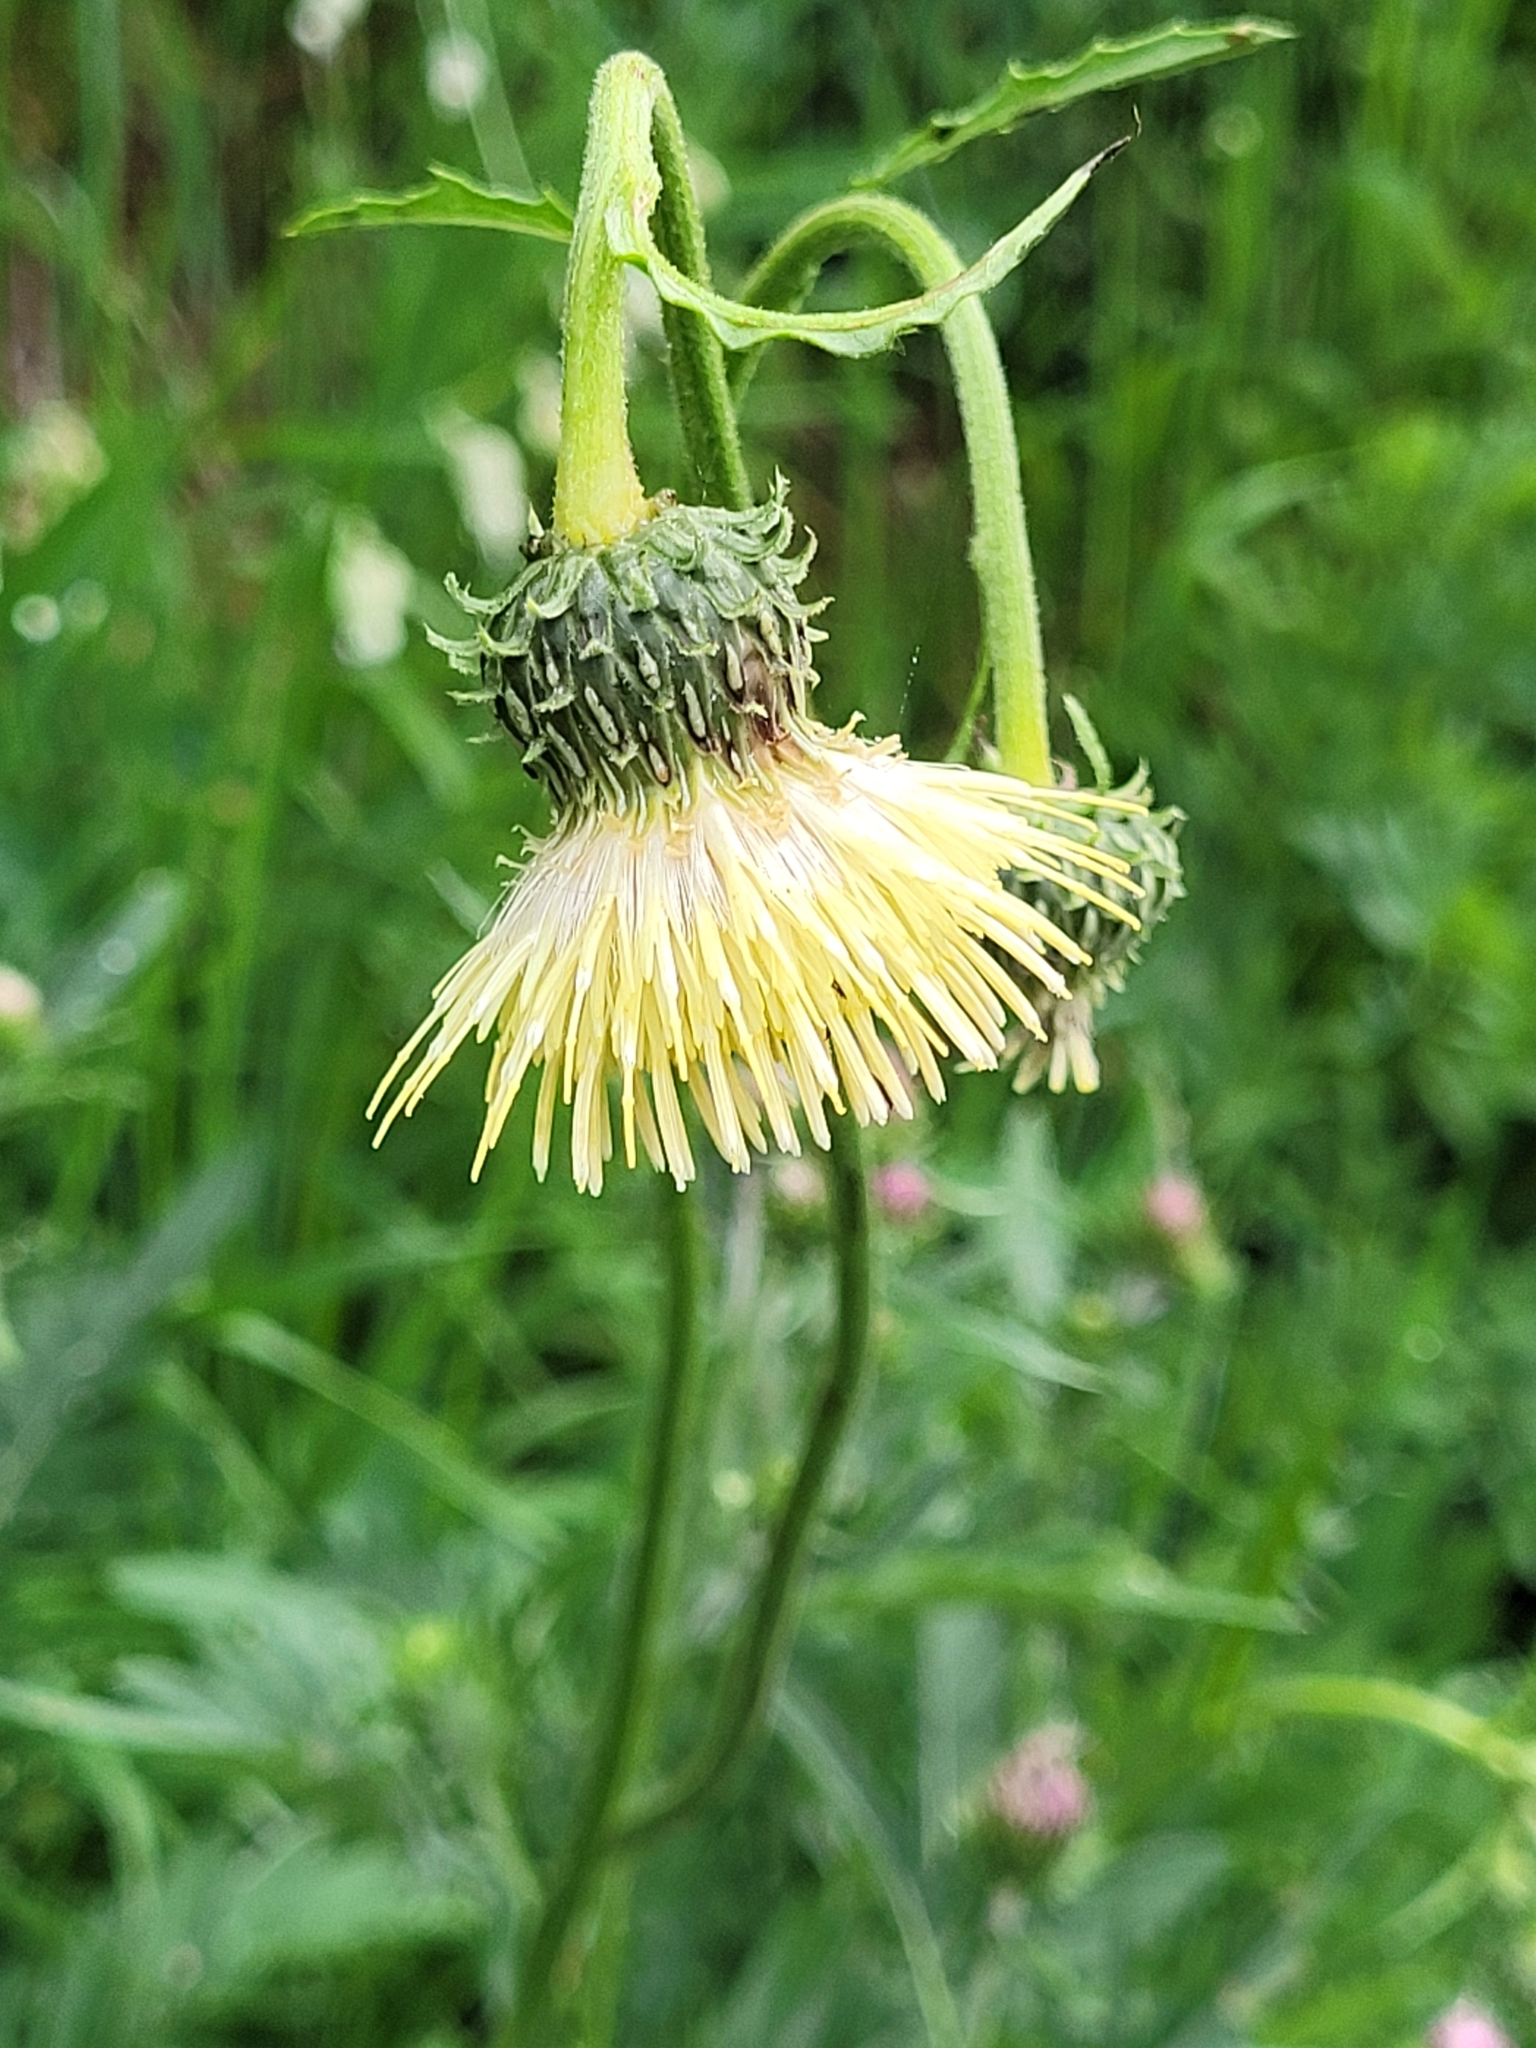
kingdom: Plantae
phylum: Tracheophyta
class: Magnoliopsida
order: Asterales
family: Asteraceae
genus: Cirsium
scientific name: Cirsium erisithales
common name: Yellow thistle
